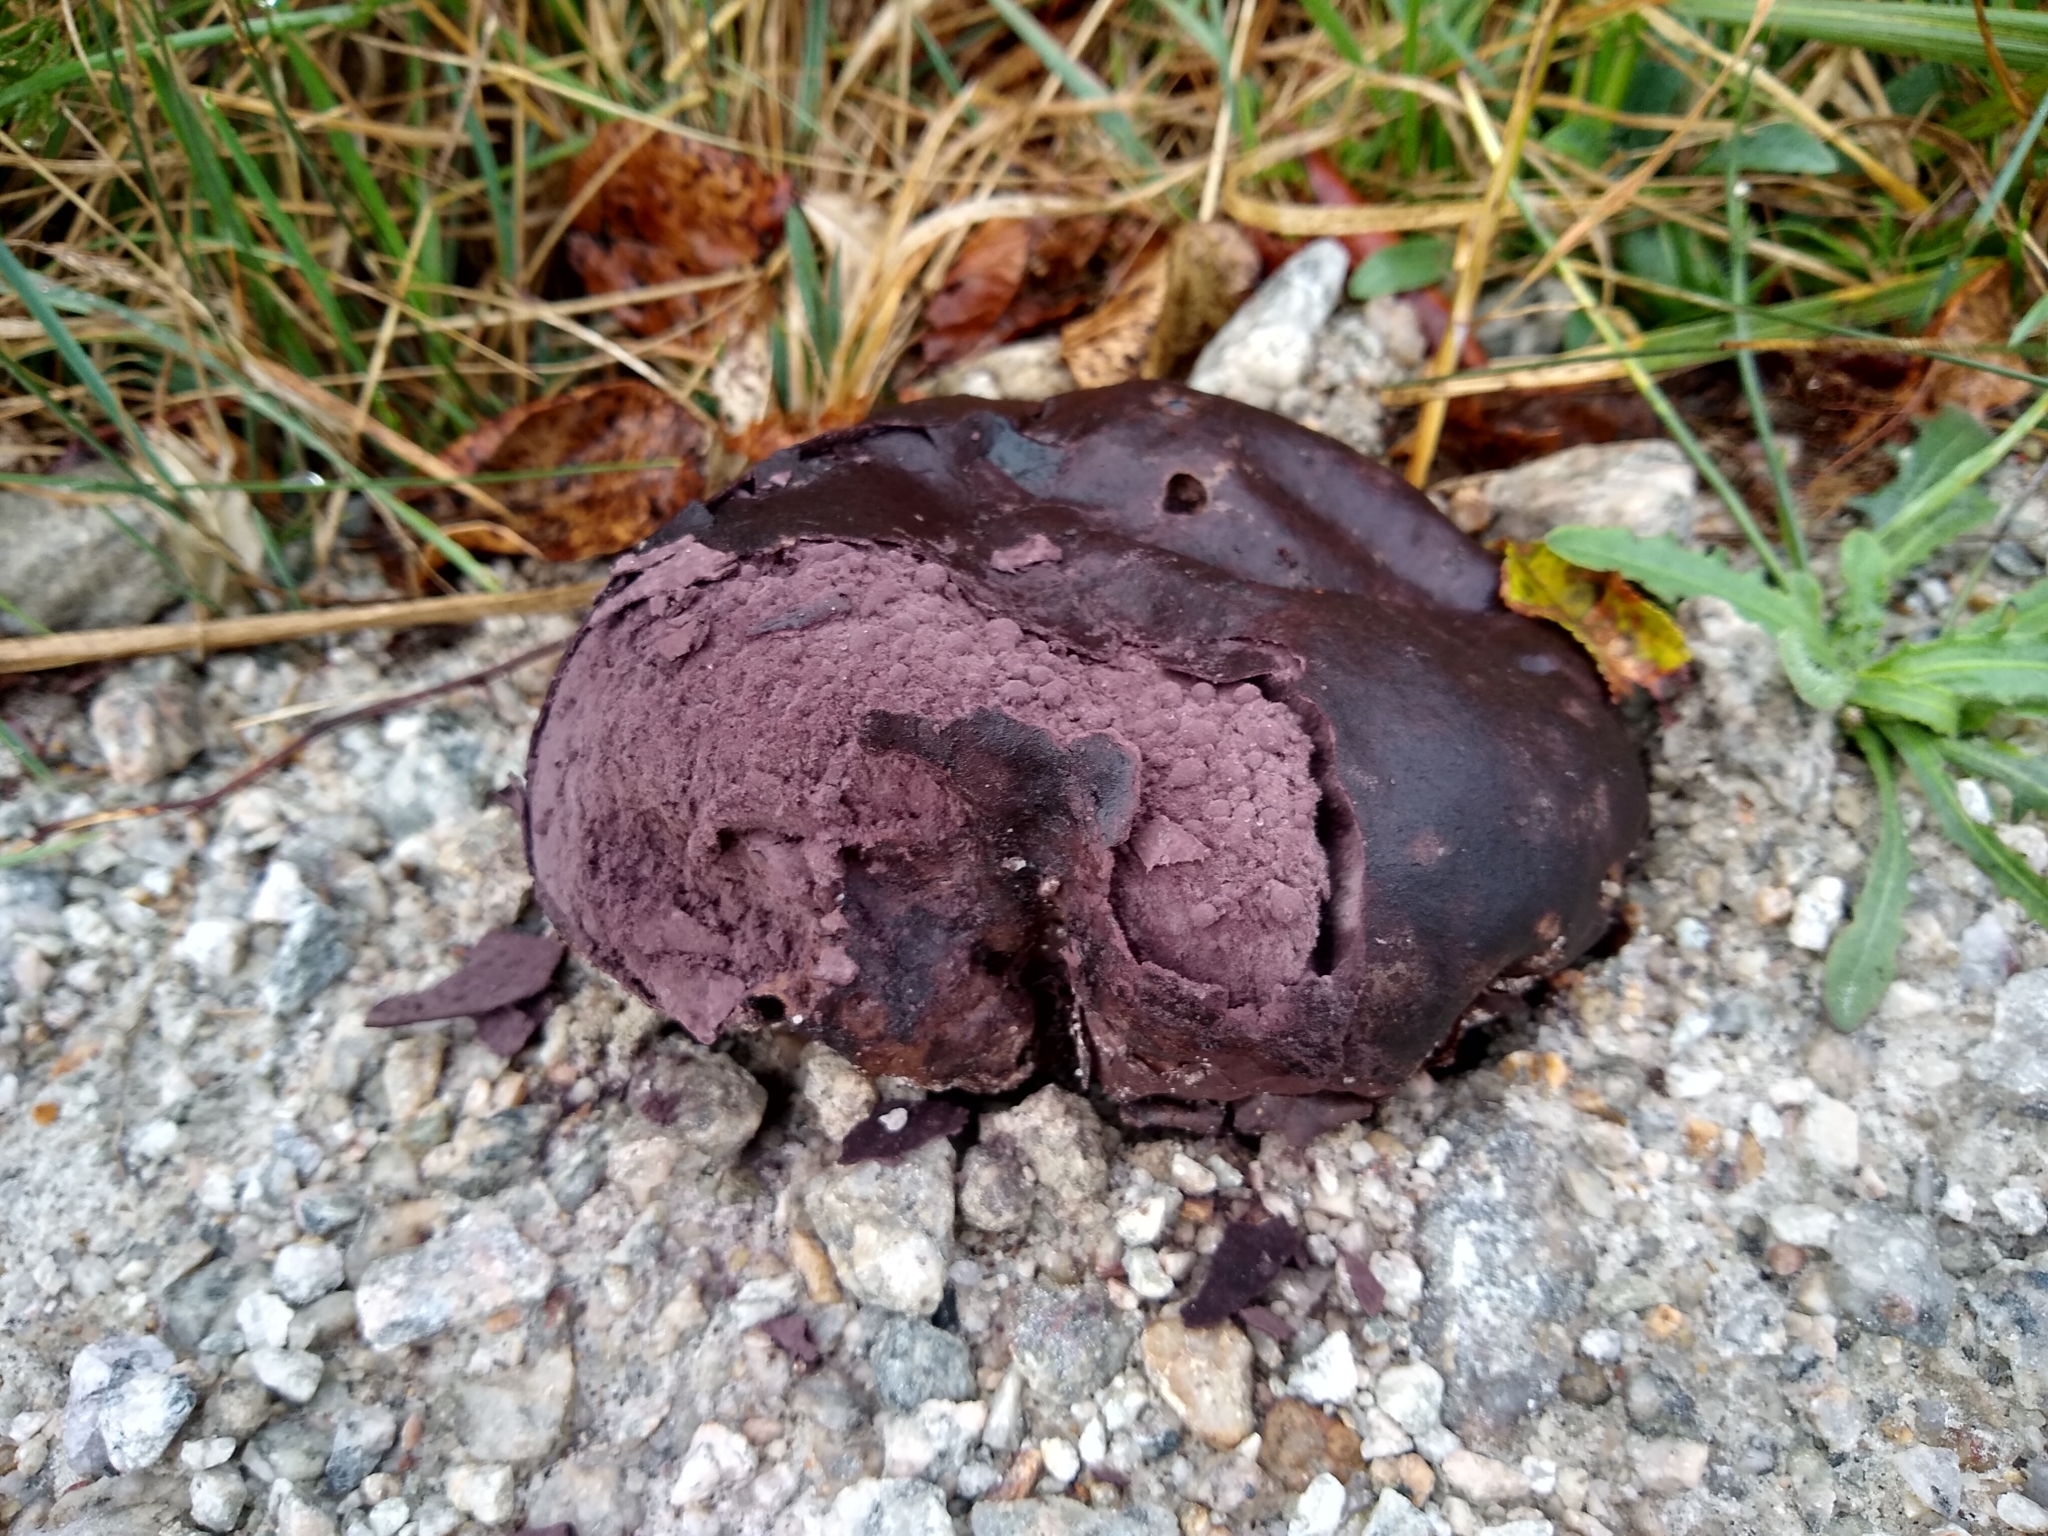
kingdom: Fungi
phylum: Basidiomycota
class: Agaricomycetes
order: Agaricales
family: Lycoperdaceae
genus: Calvatia
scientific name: Calvatia cyathiformis
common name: Purple-spored puffball
